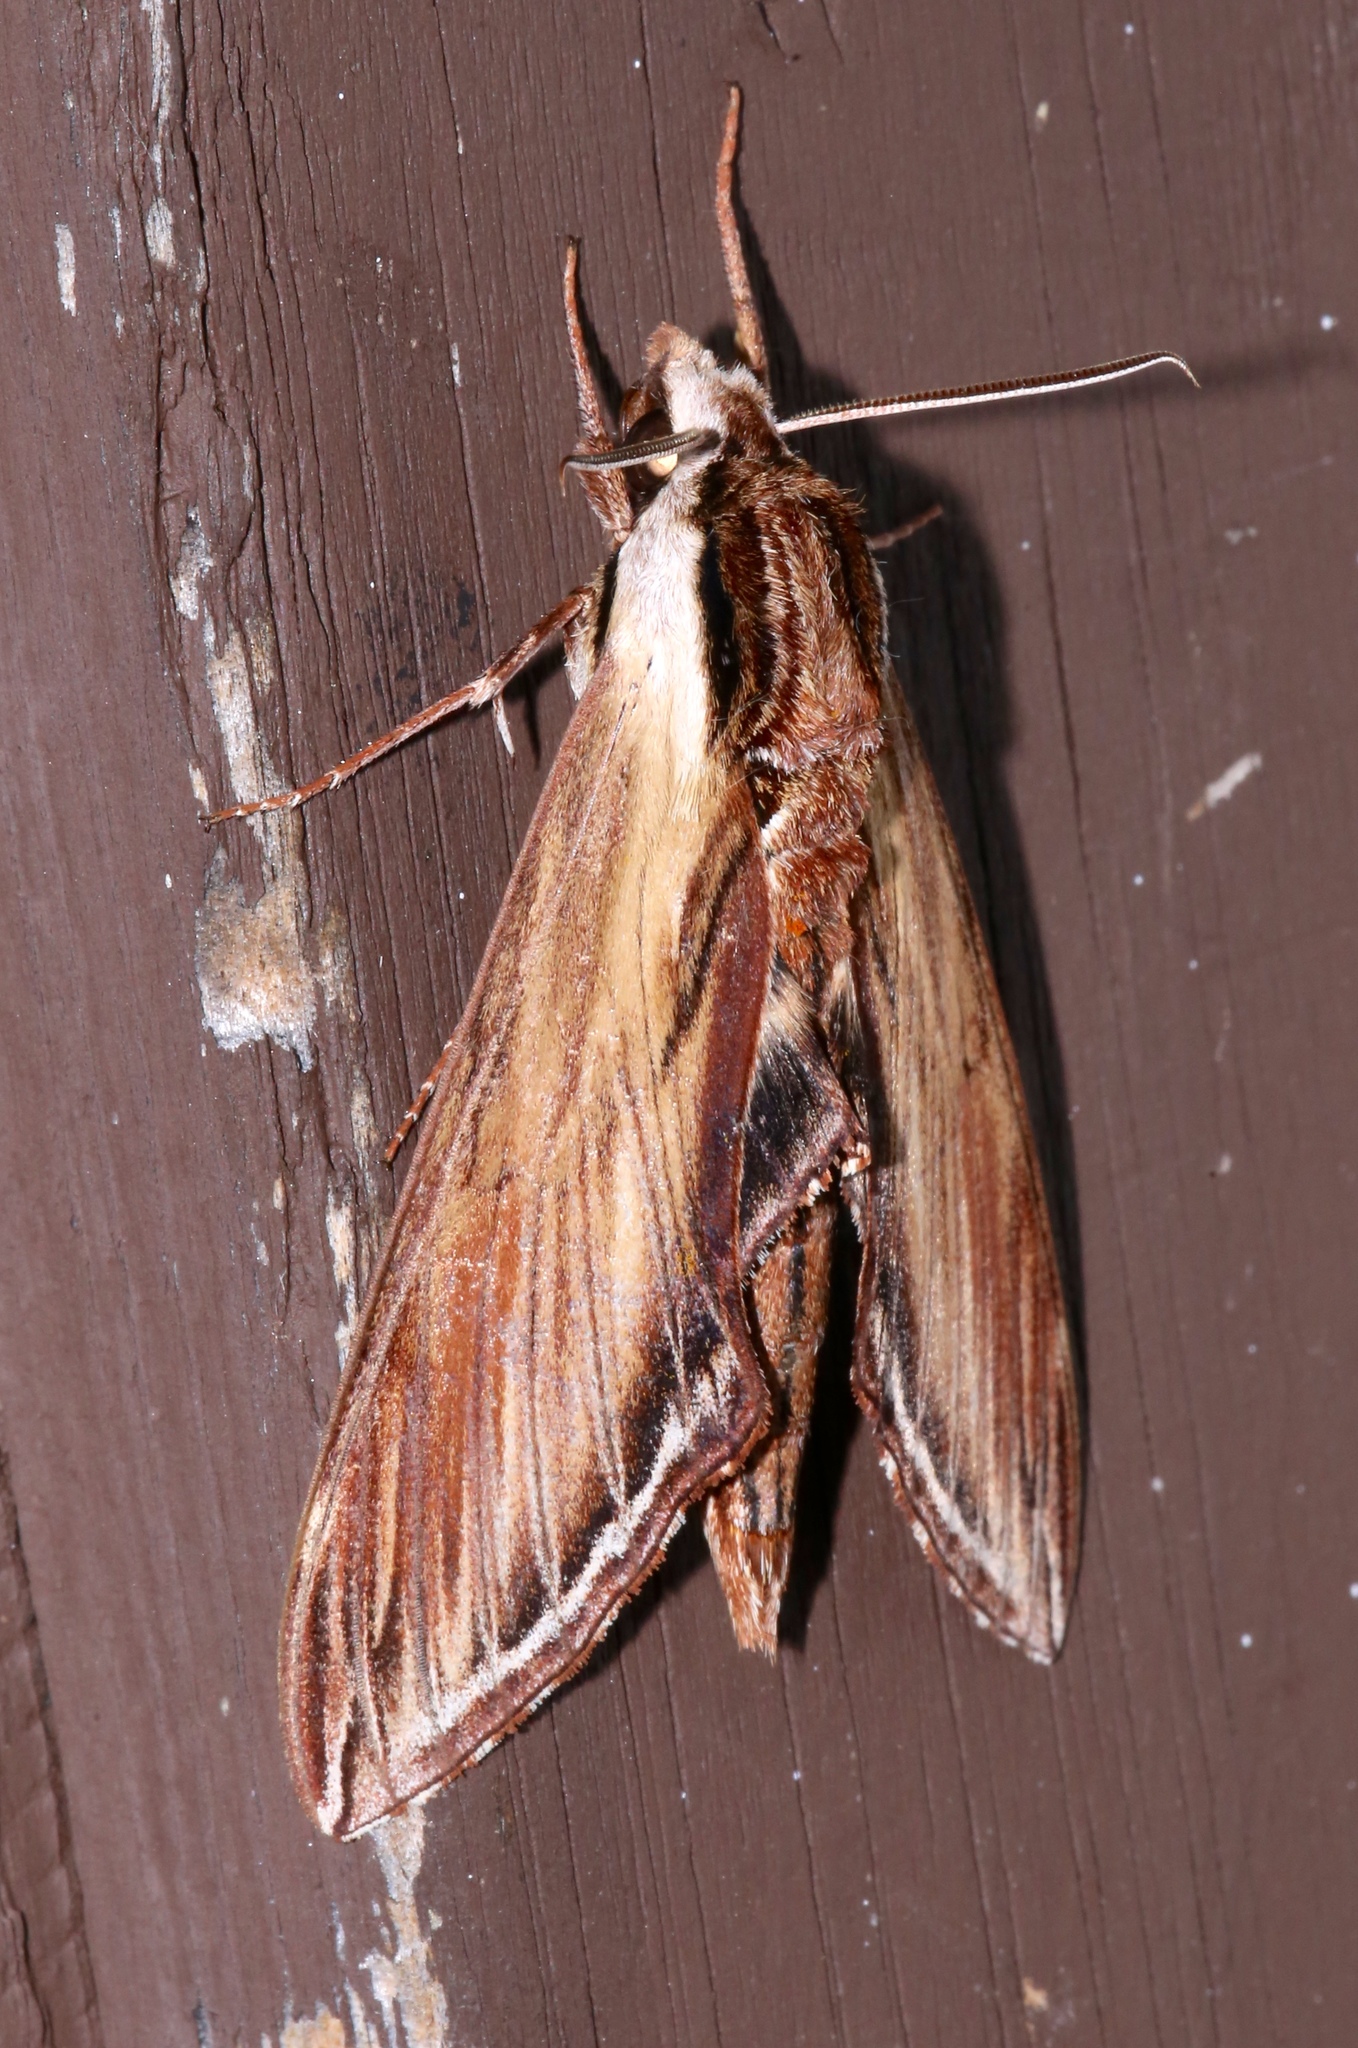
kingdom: Animalia
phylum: Arthropoda
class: Insecta
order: Lepidoptera
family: Sphingidae
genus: Sphinx
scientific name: Sphinx kalmiae
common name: Laurel sphinx
